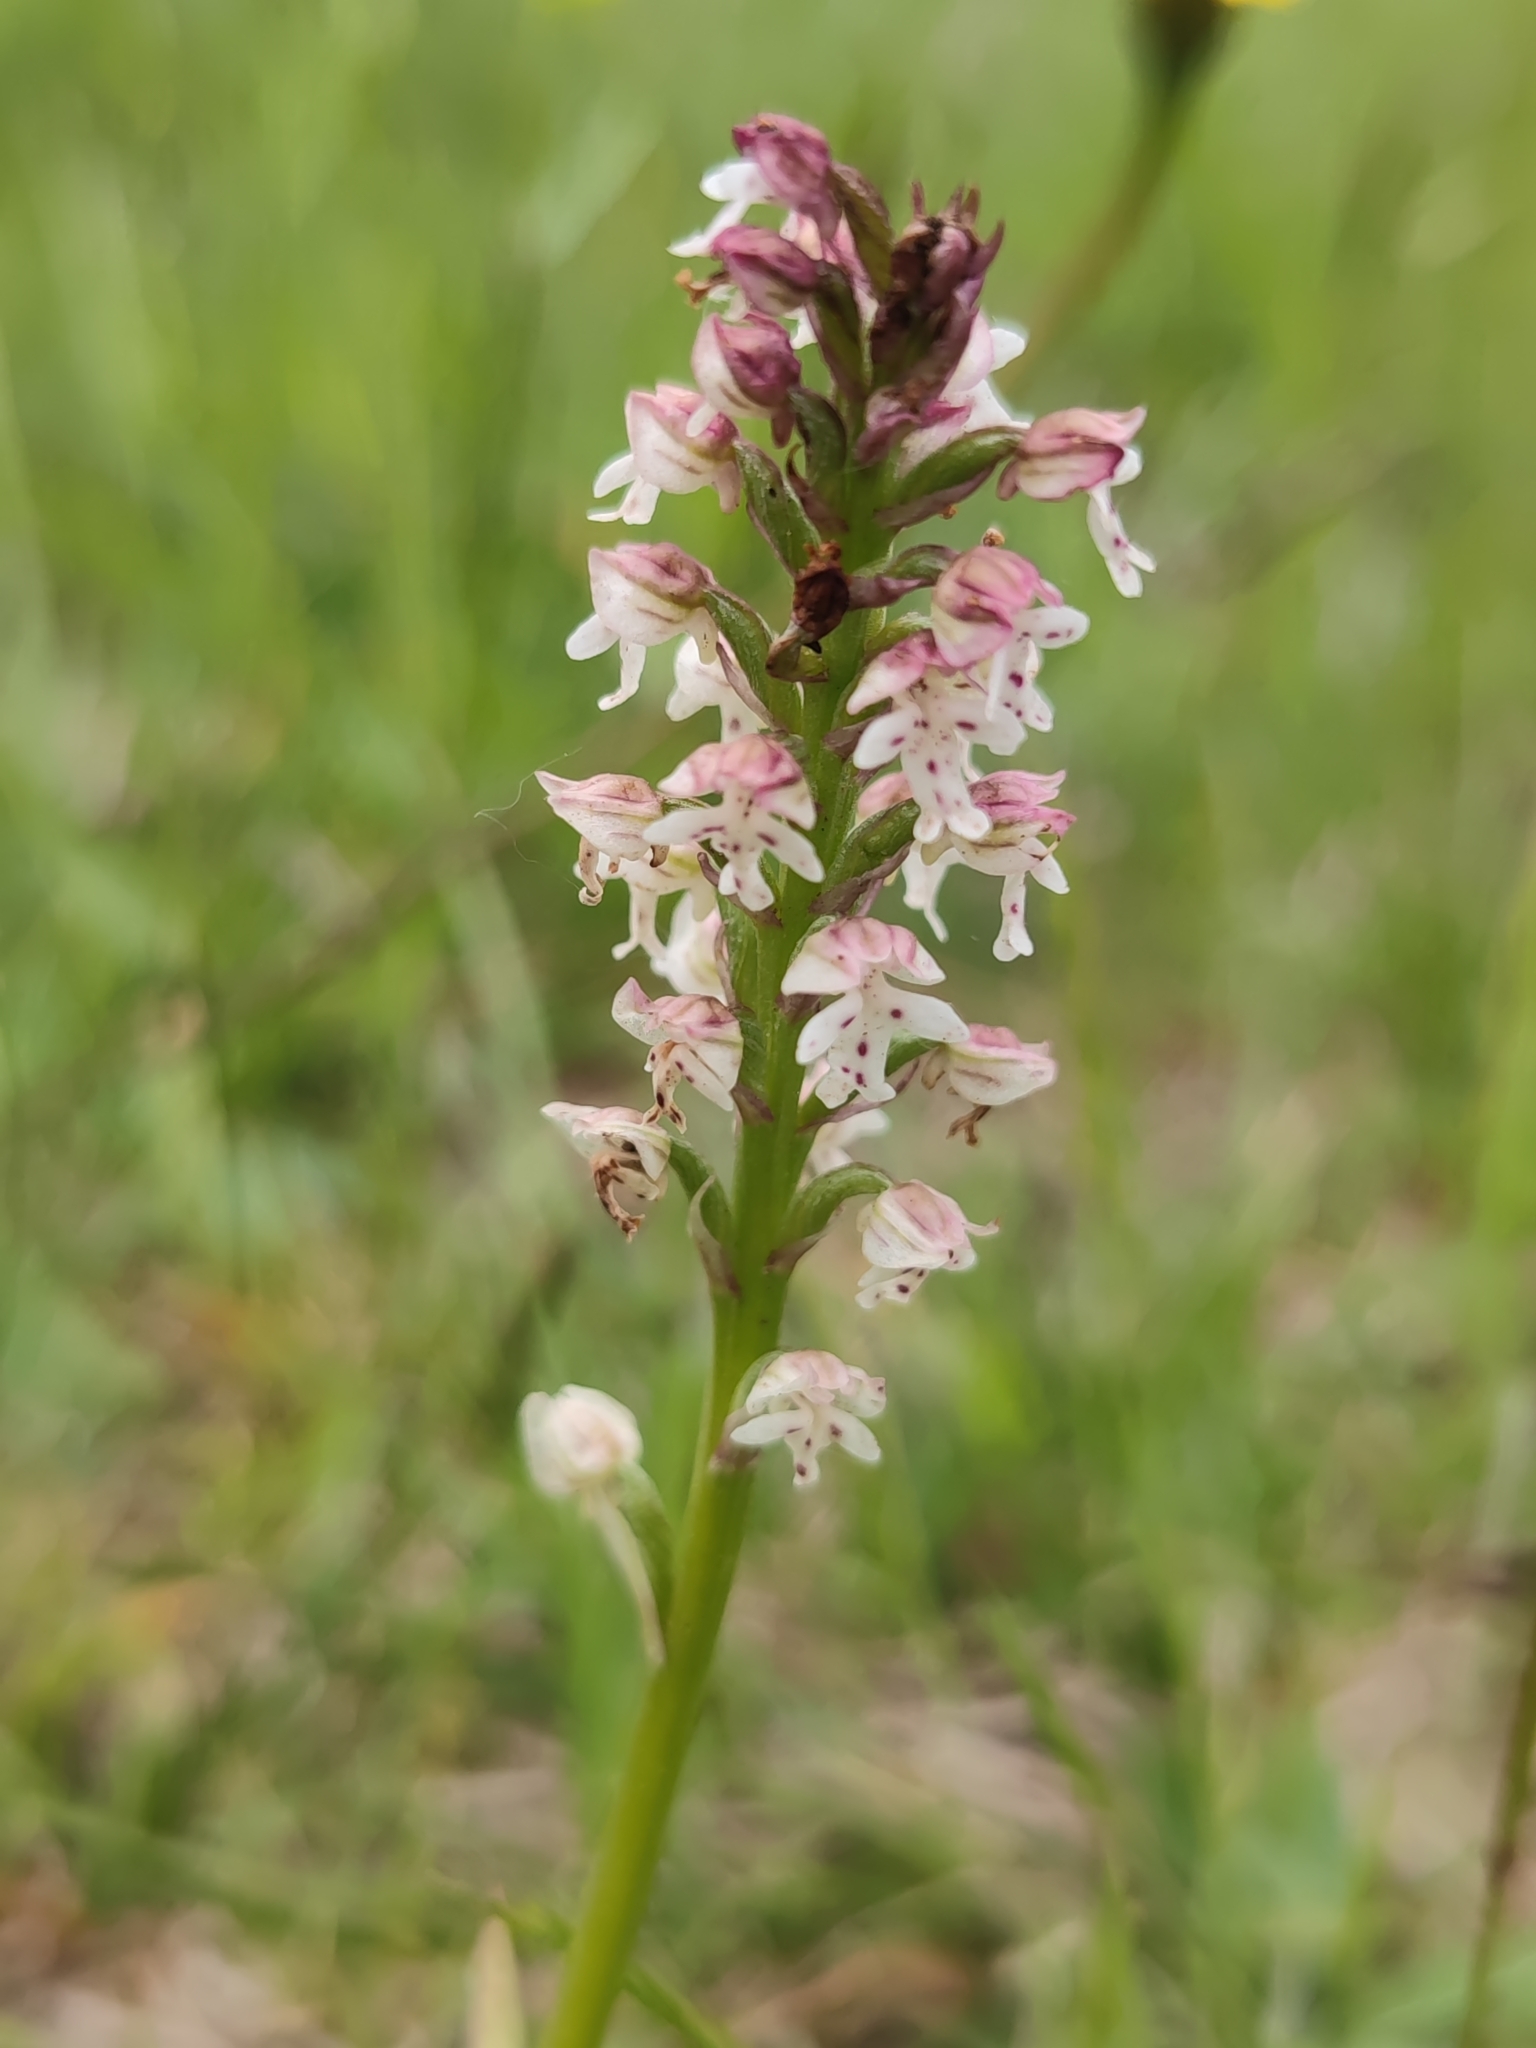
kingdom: Plantae
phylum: Tracheophyta
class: Liliopsida
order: Asparagales
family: Orchidaceae
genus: Neotinea
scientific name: Neotinea ustulata
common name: Burnt orchid
